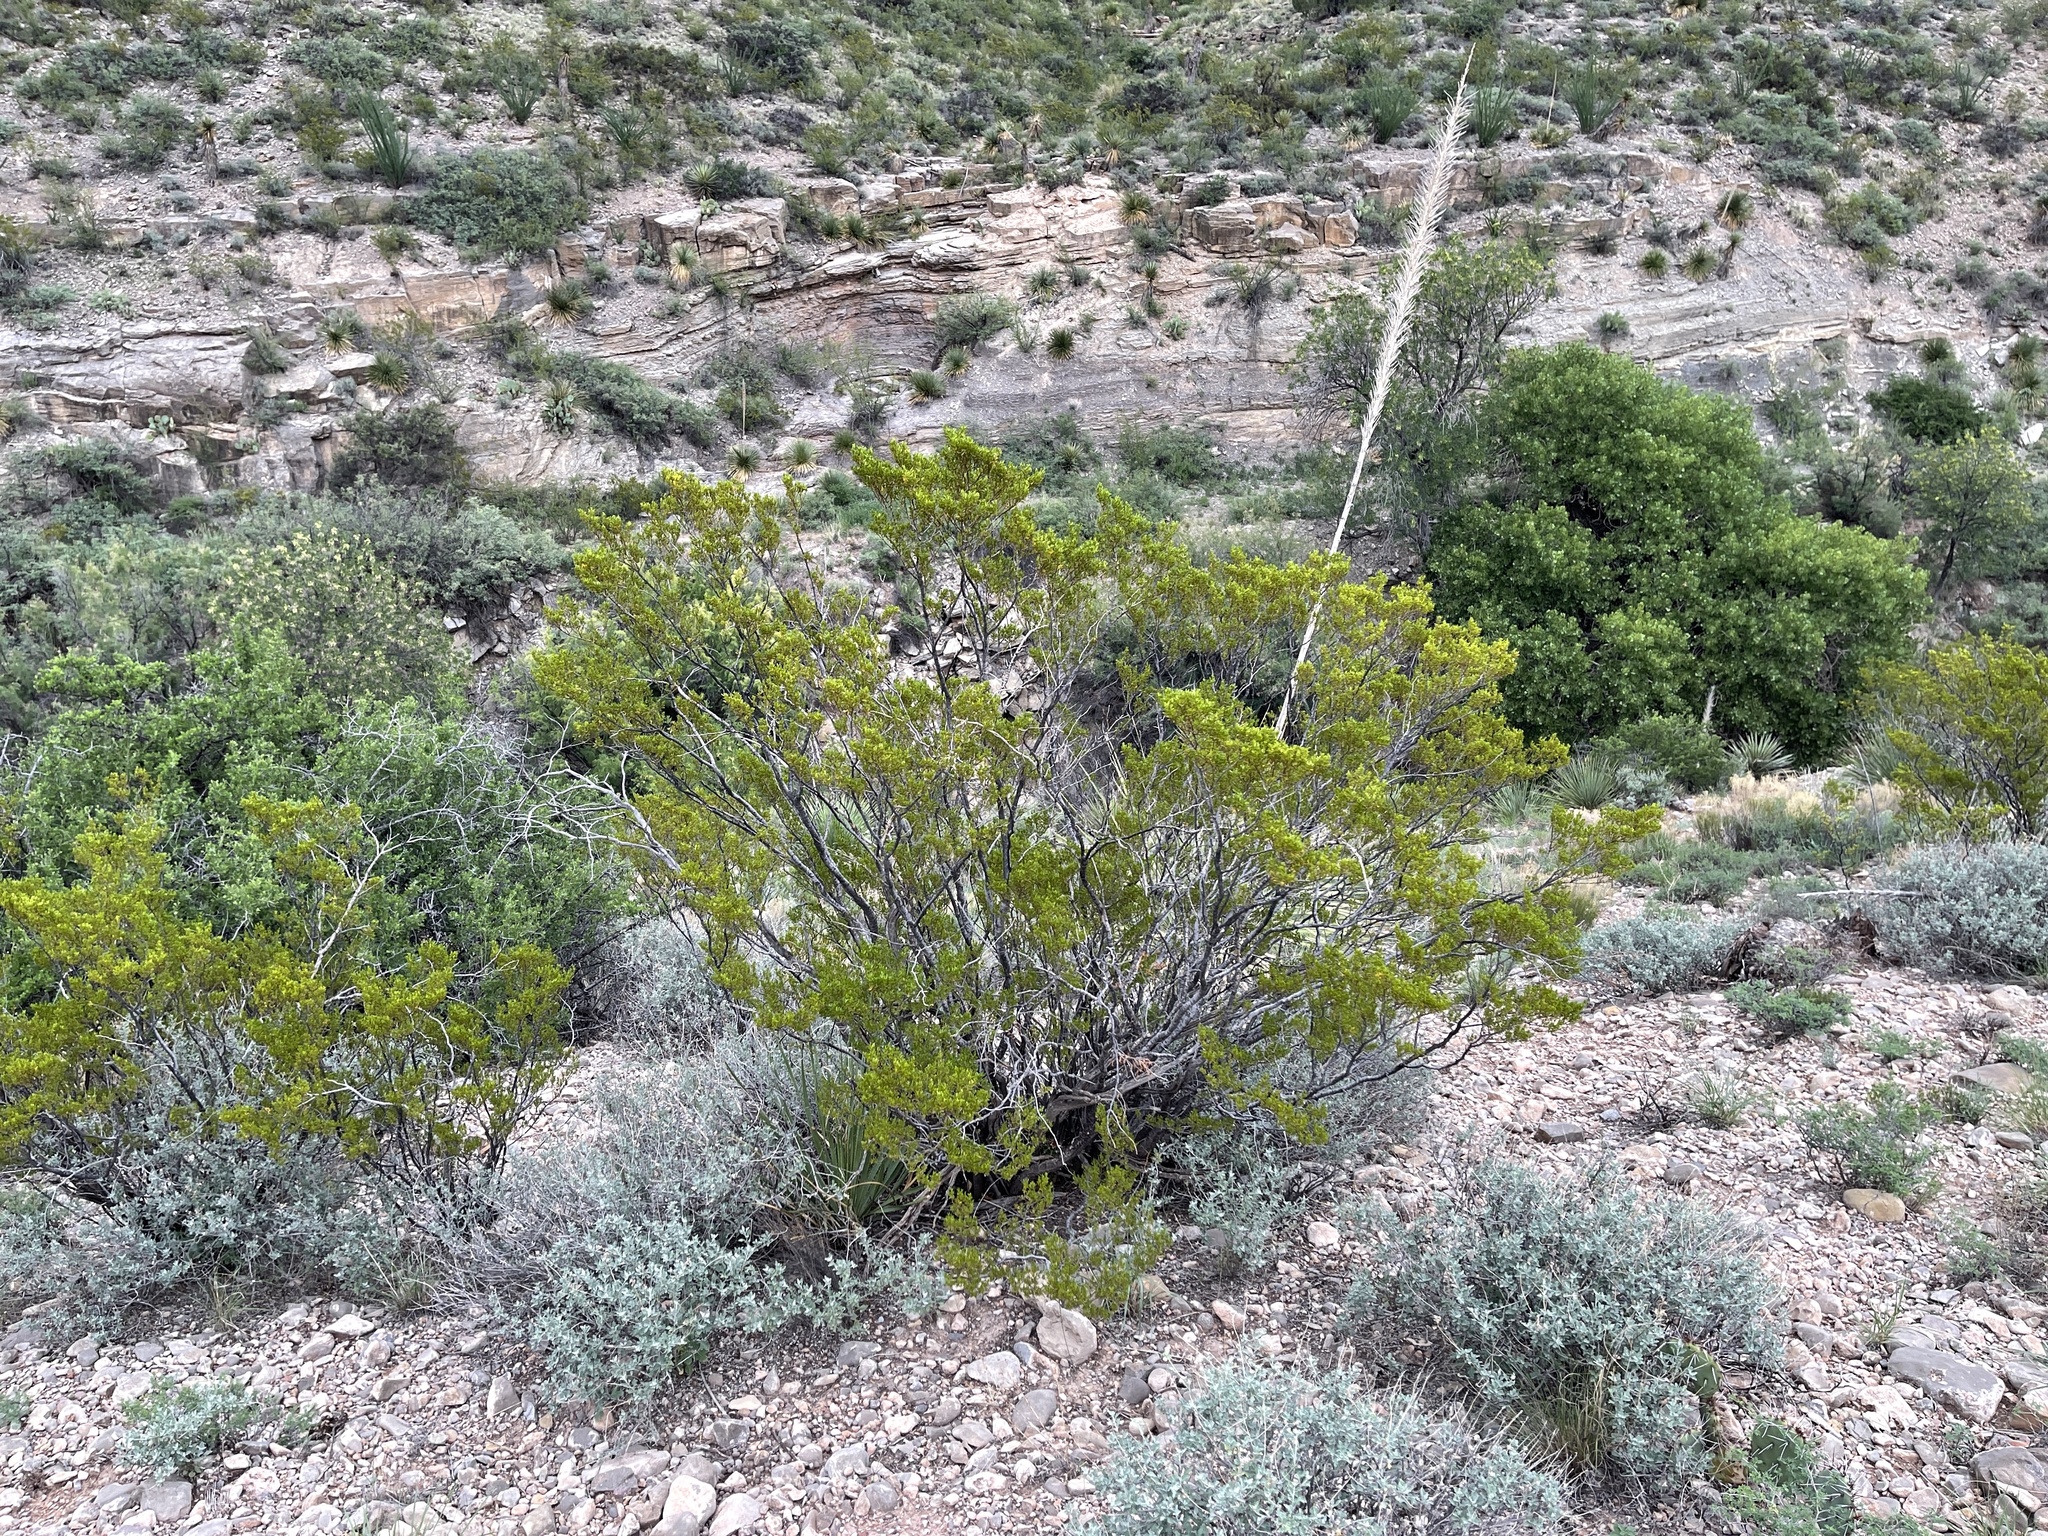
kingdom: Plantae
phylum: Tracheophyta
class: Magnoliopsida
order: Zygophyllales
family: Zygophyllaceae
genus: Larrea
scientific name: Larrea tridentata
